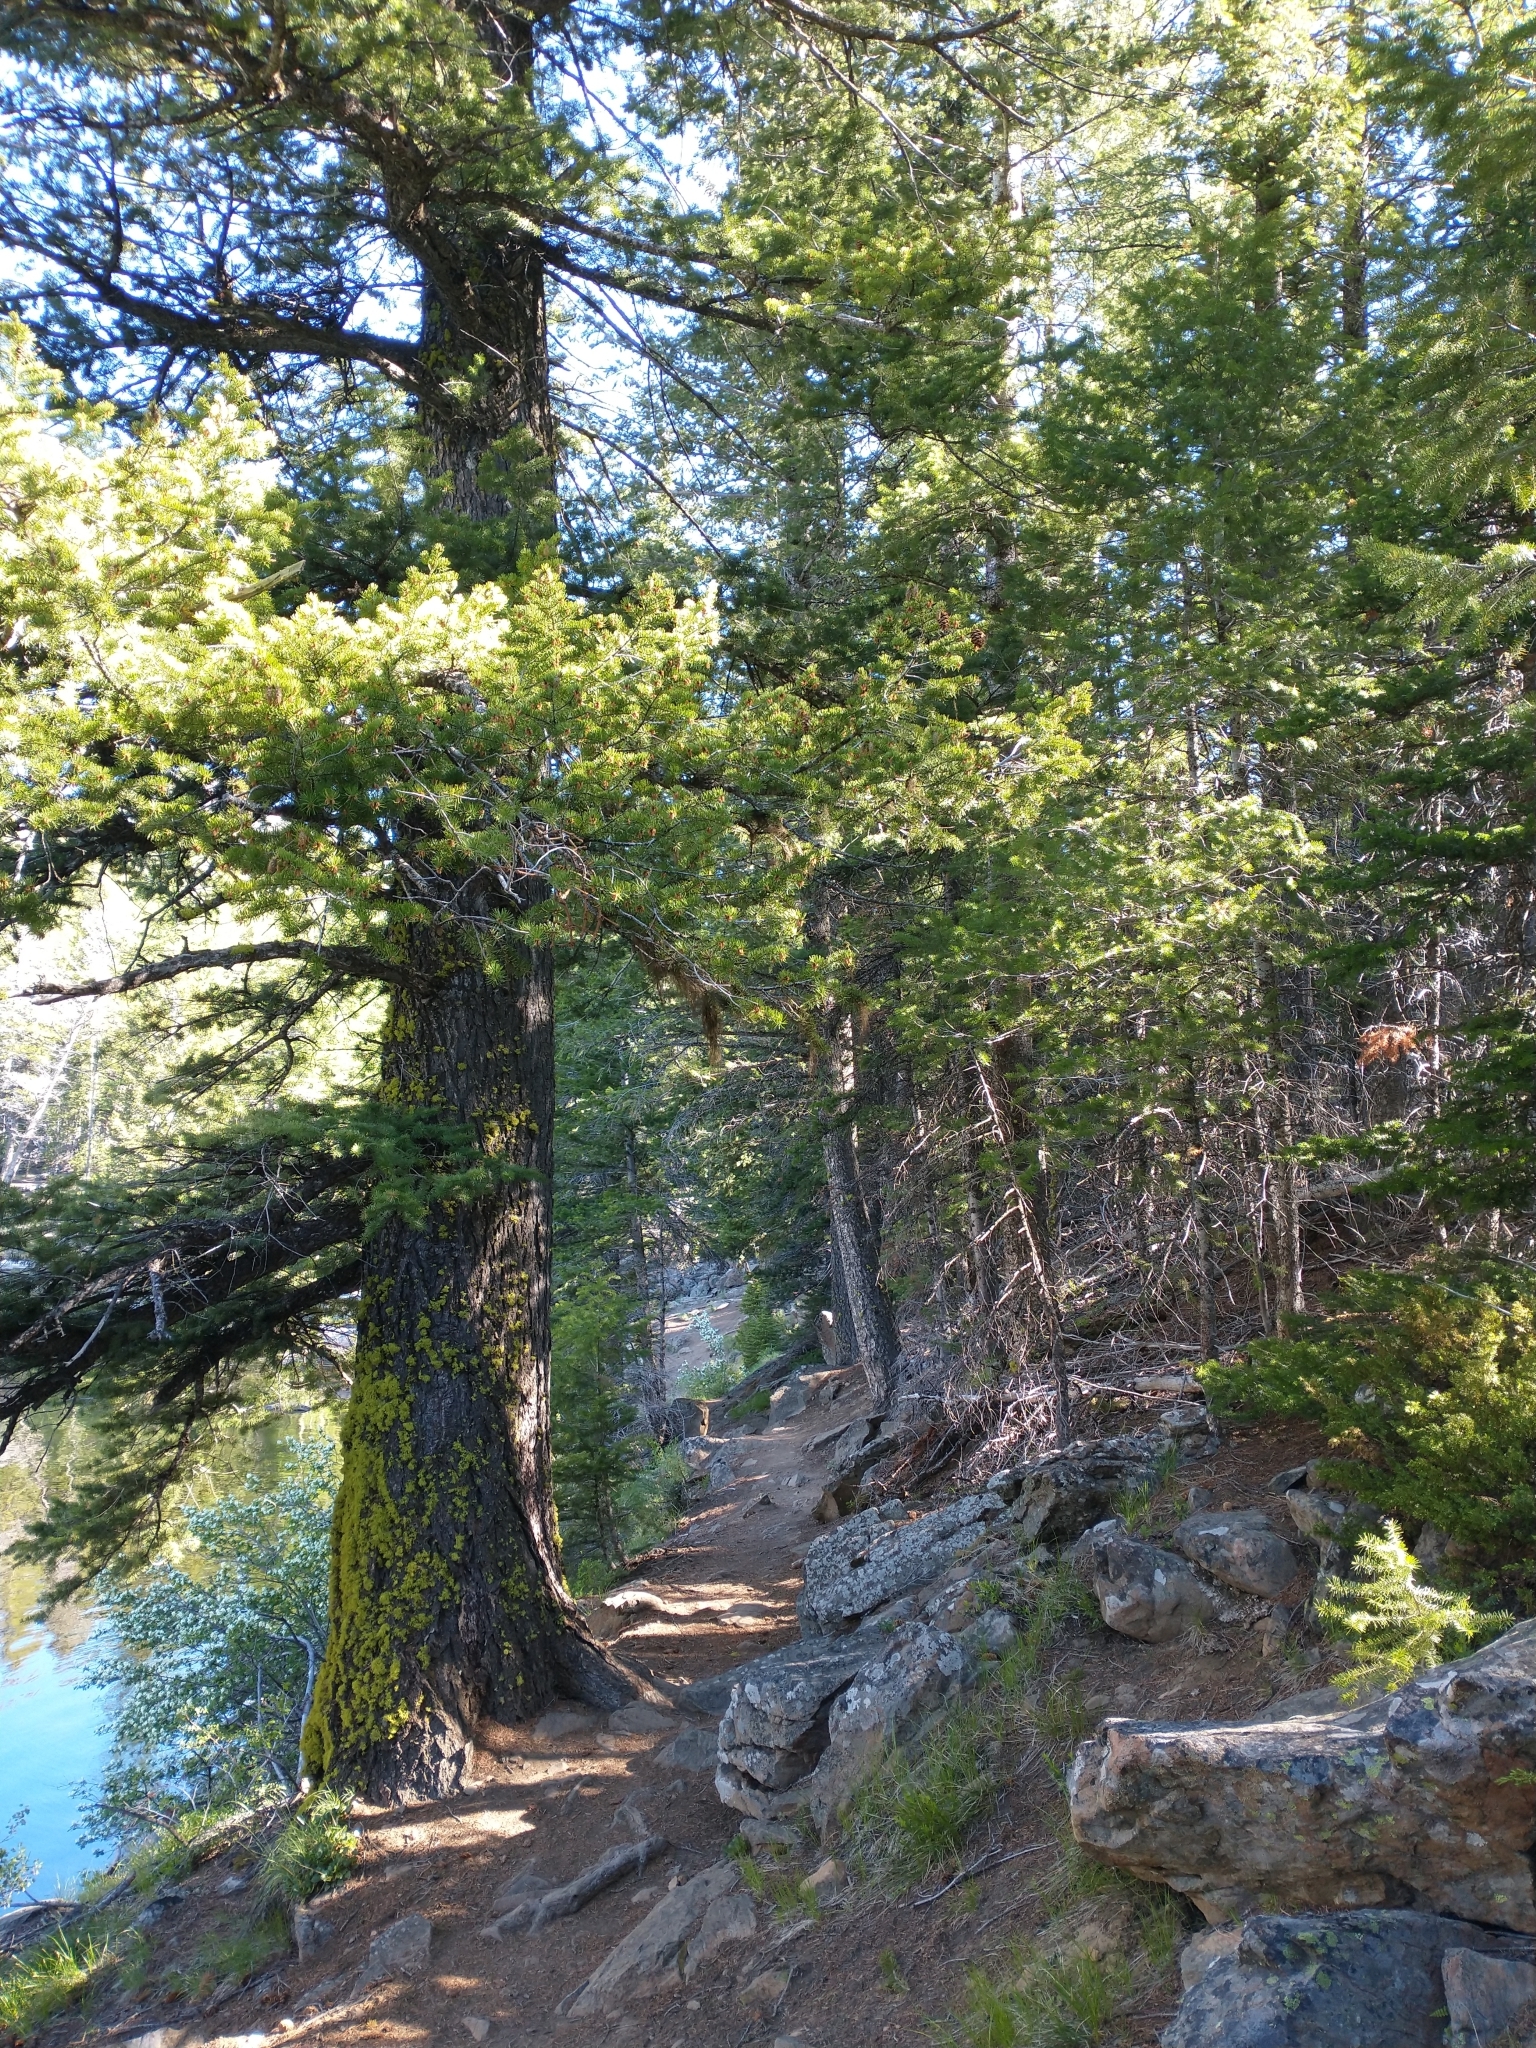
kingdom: Plantae
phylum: Tracheophyta
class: Pinopsida
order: Pinales
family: Pinaceae
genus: Pseudotsuga
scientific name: Pseudotsuga menziesii
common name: Douglas fir
